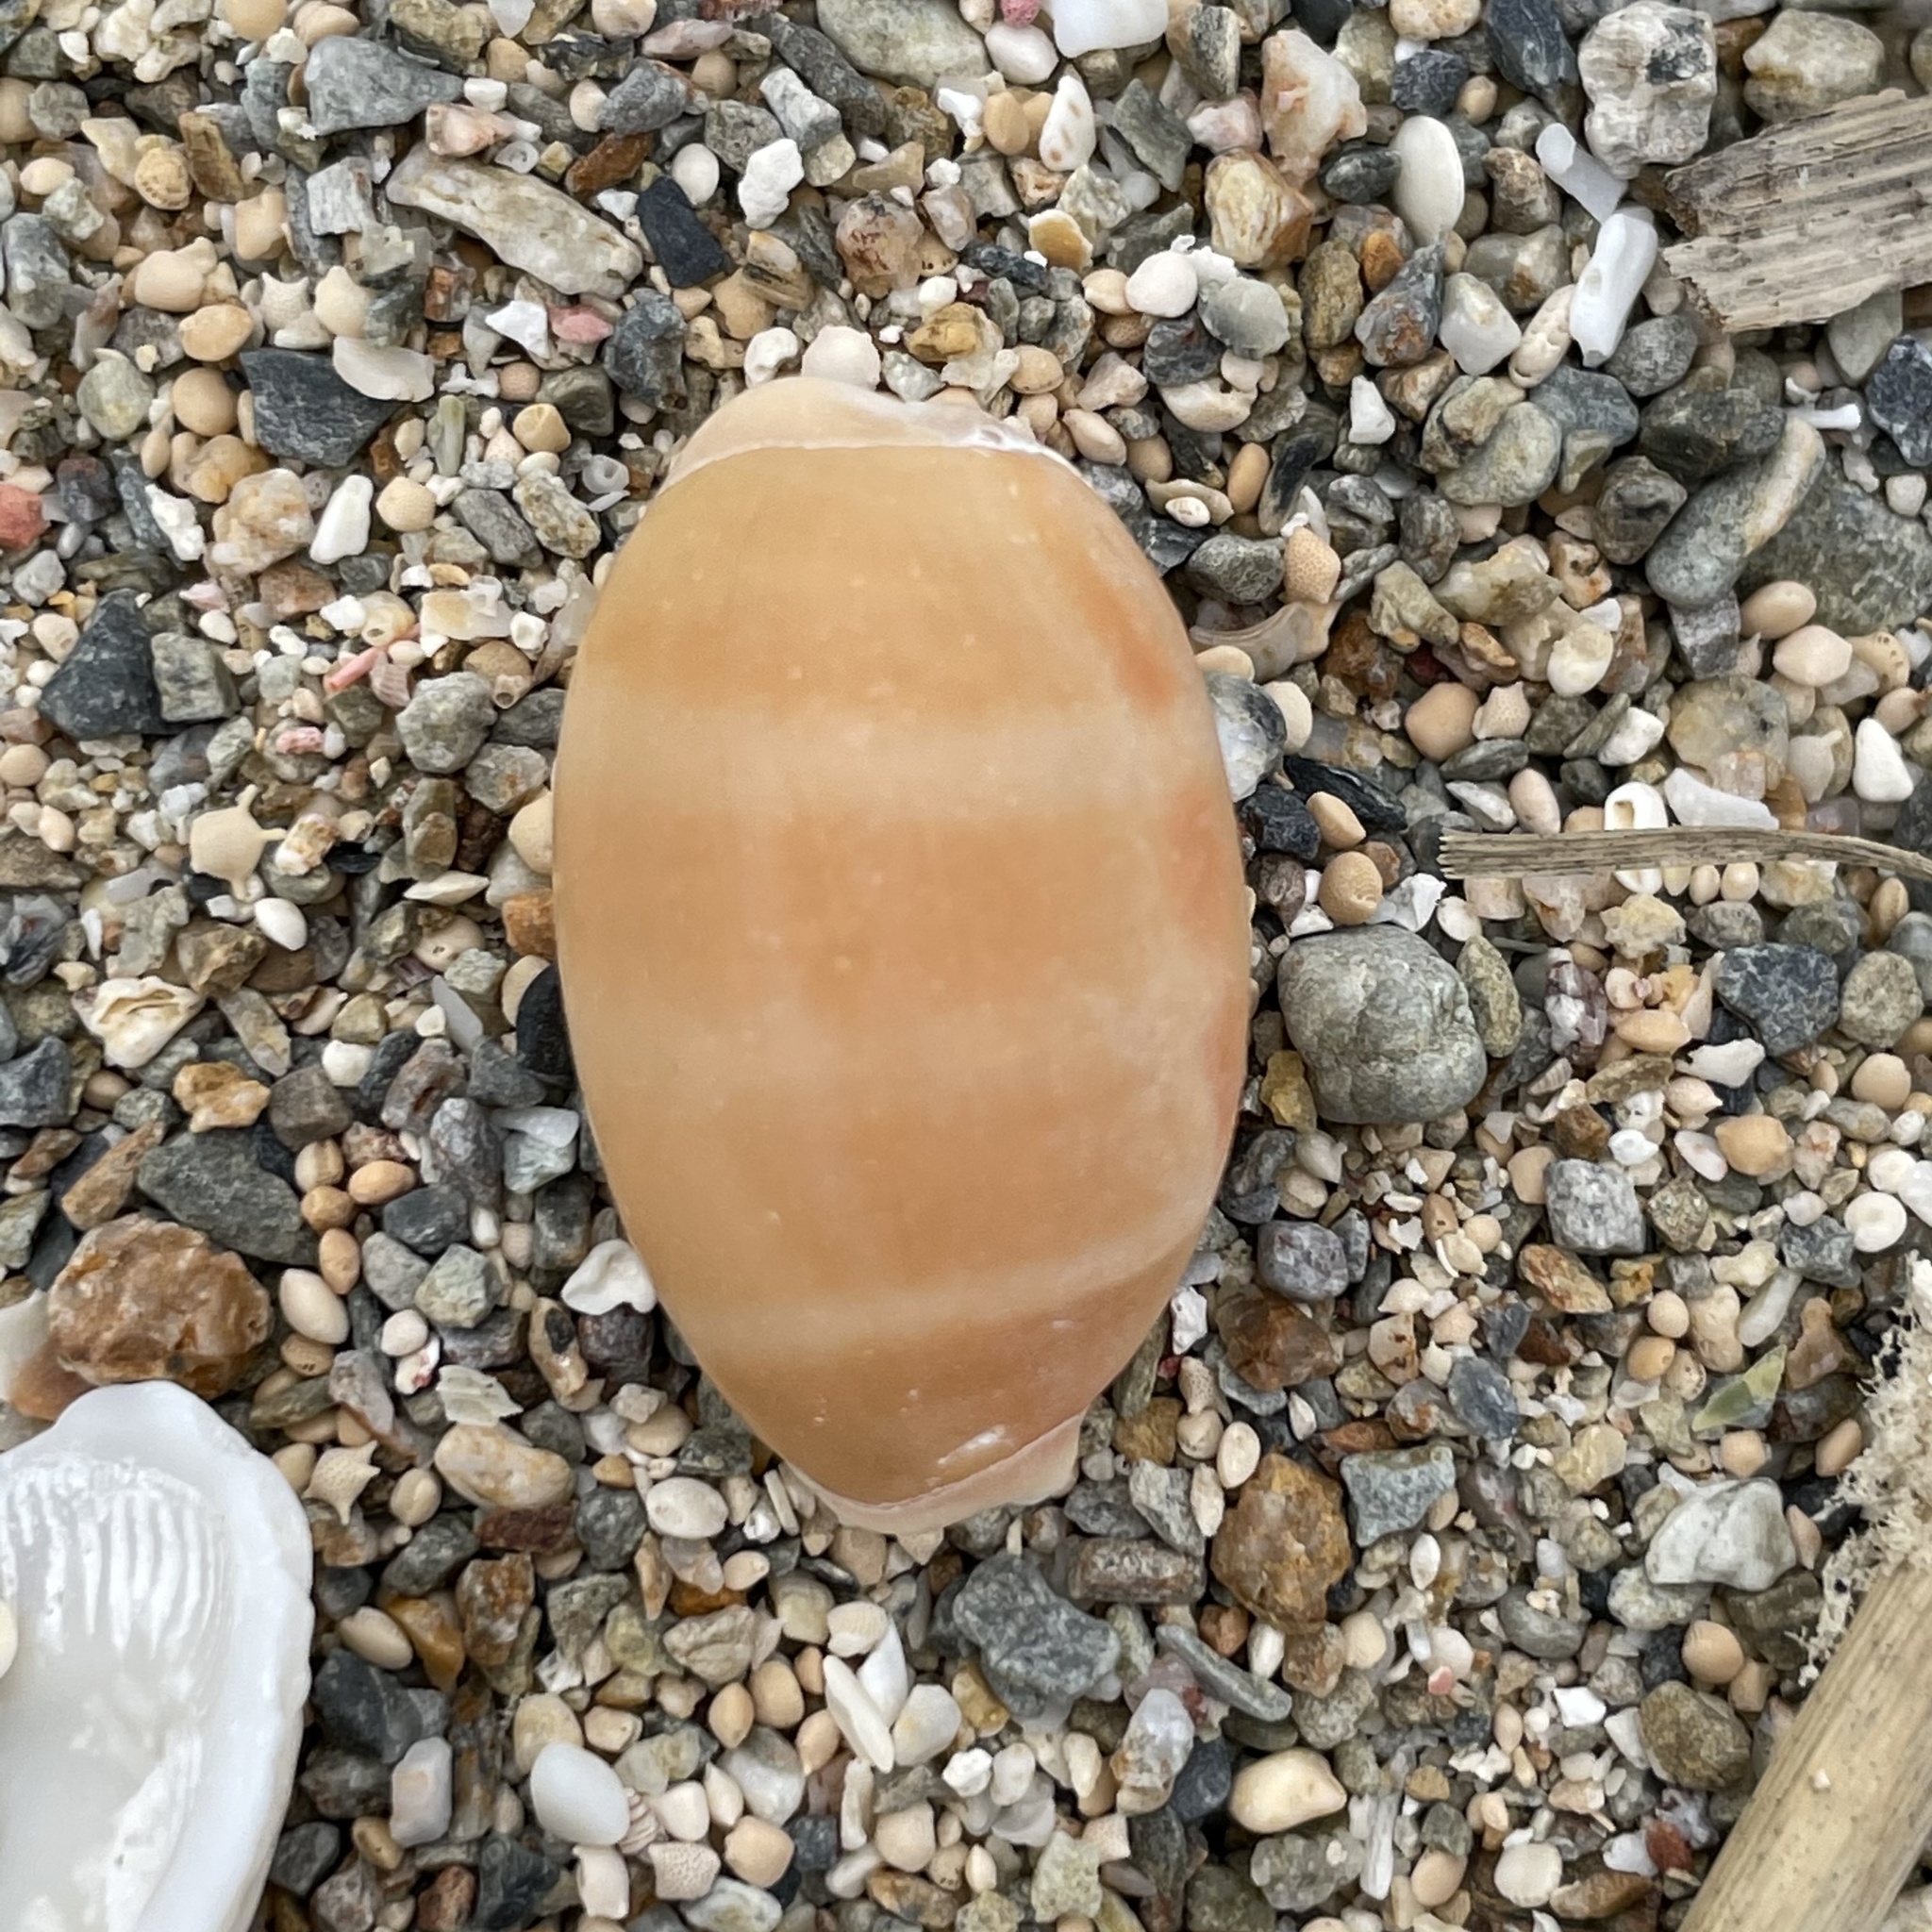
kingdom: Animalia
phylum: Mollusca
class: Gastropoda
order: Littorinimorpha
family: Cypraeidae
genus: Lyncina
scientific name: Lyncina carneola
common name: Purple-mouthed cowry
